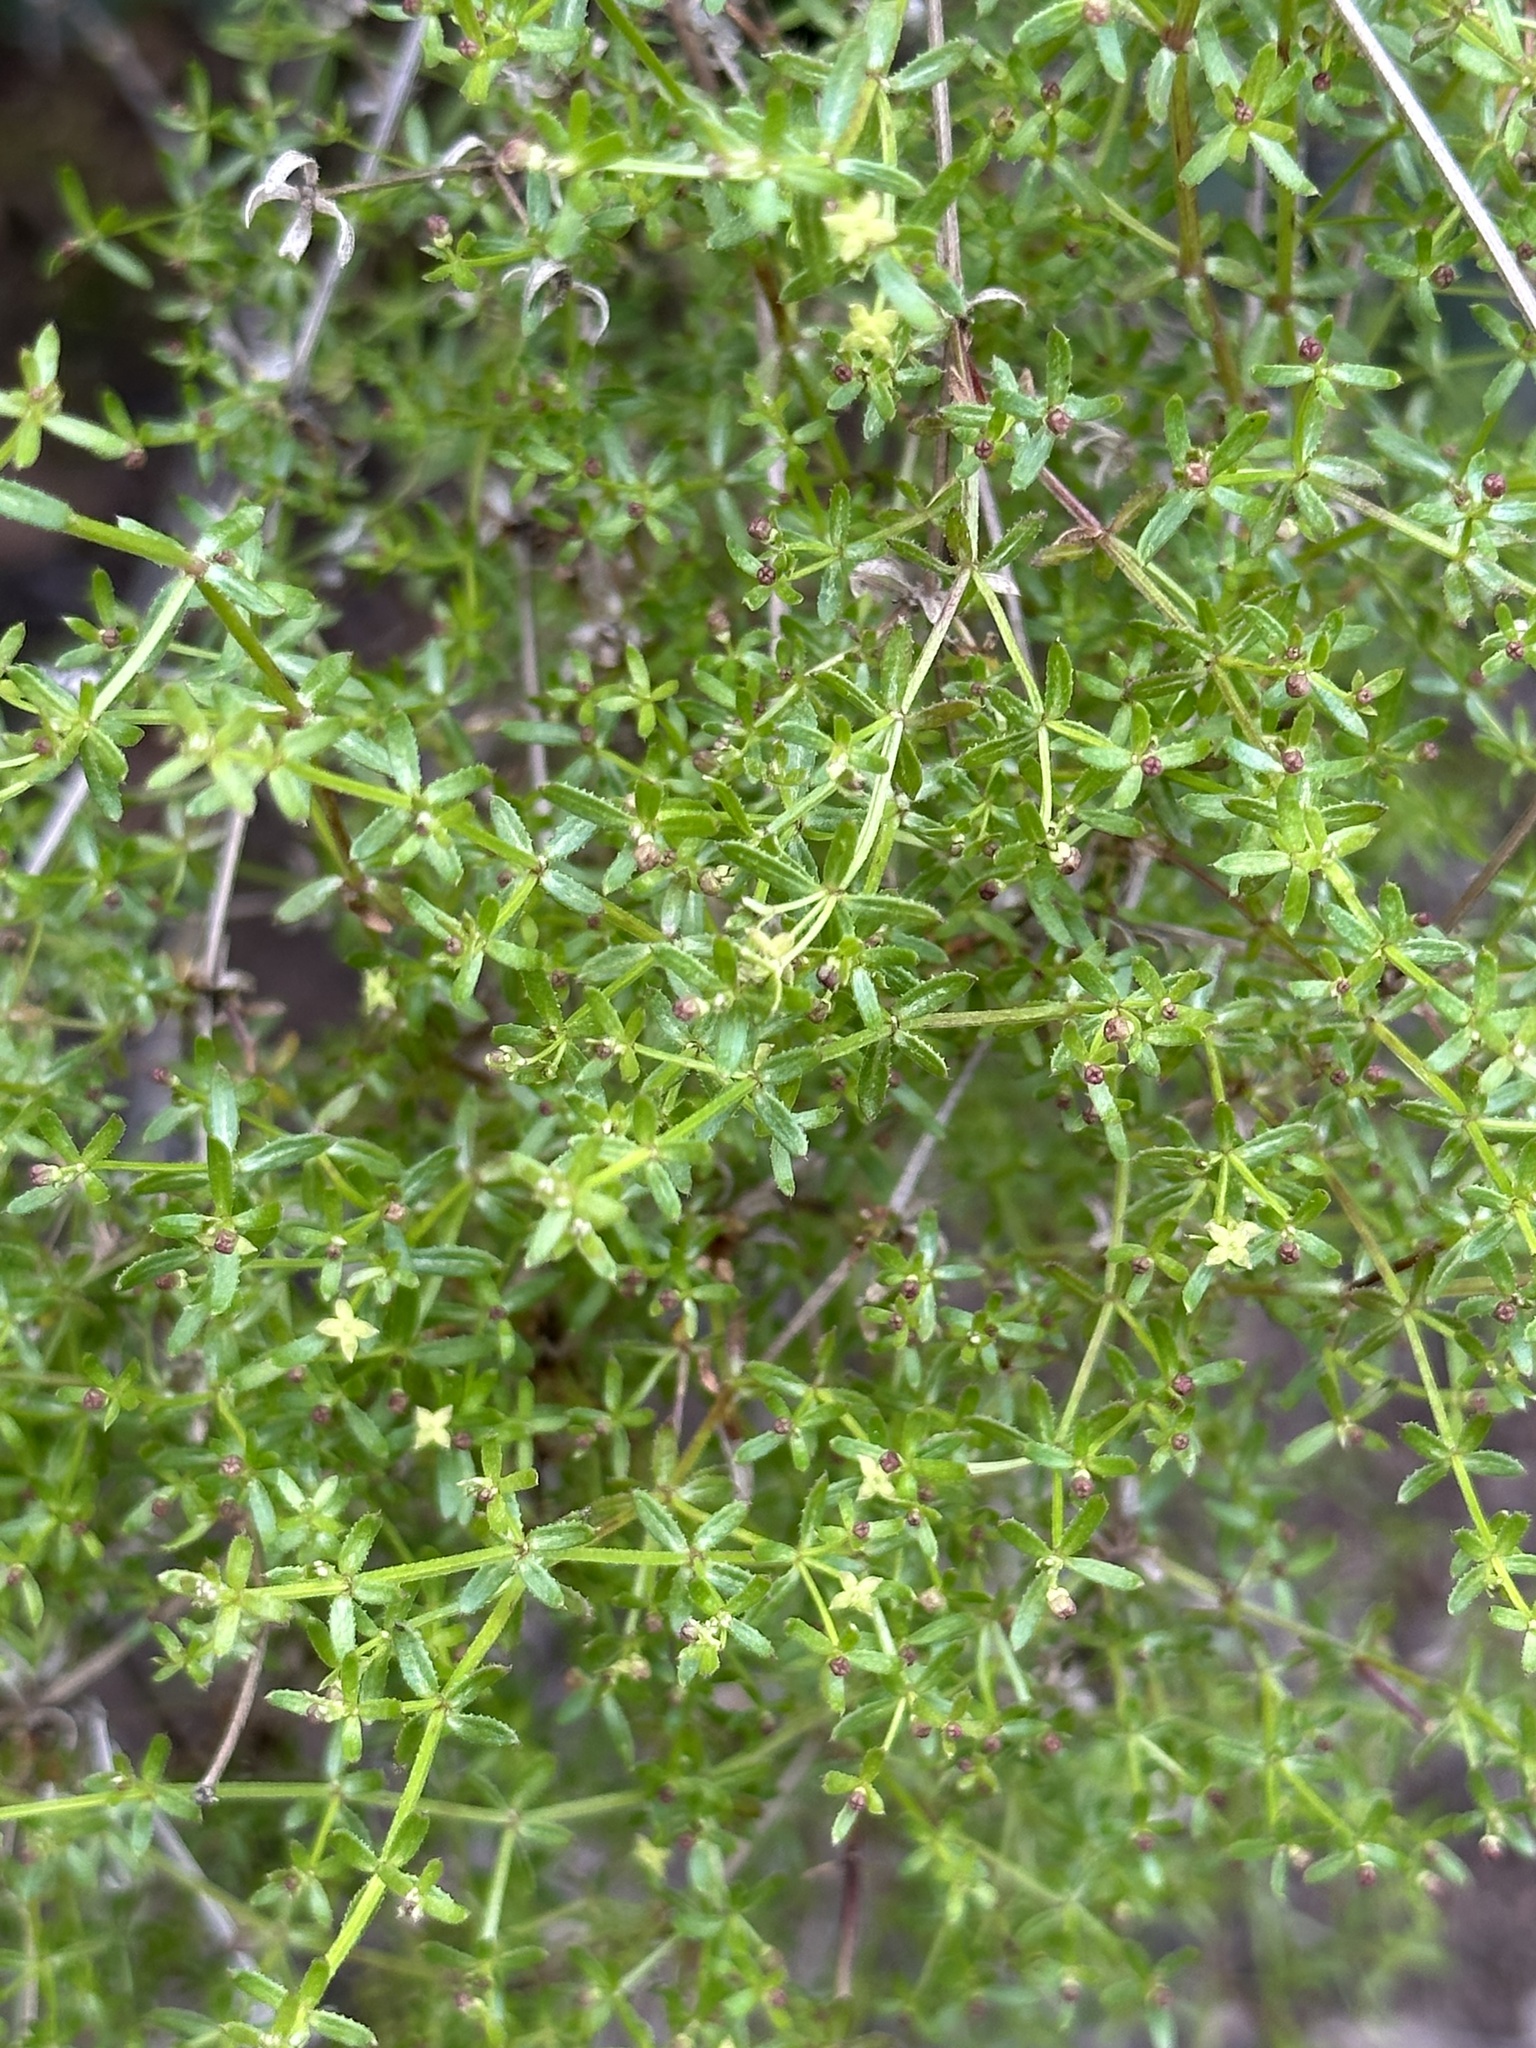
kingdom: Plantae
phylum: Tracheophyta
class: Magnoliopsida
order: Gentianales
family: Rubiaceae
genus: Galium
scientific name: Galium porrigens
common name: Climbing bedstraw
